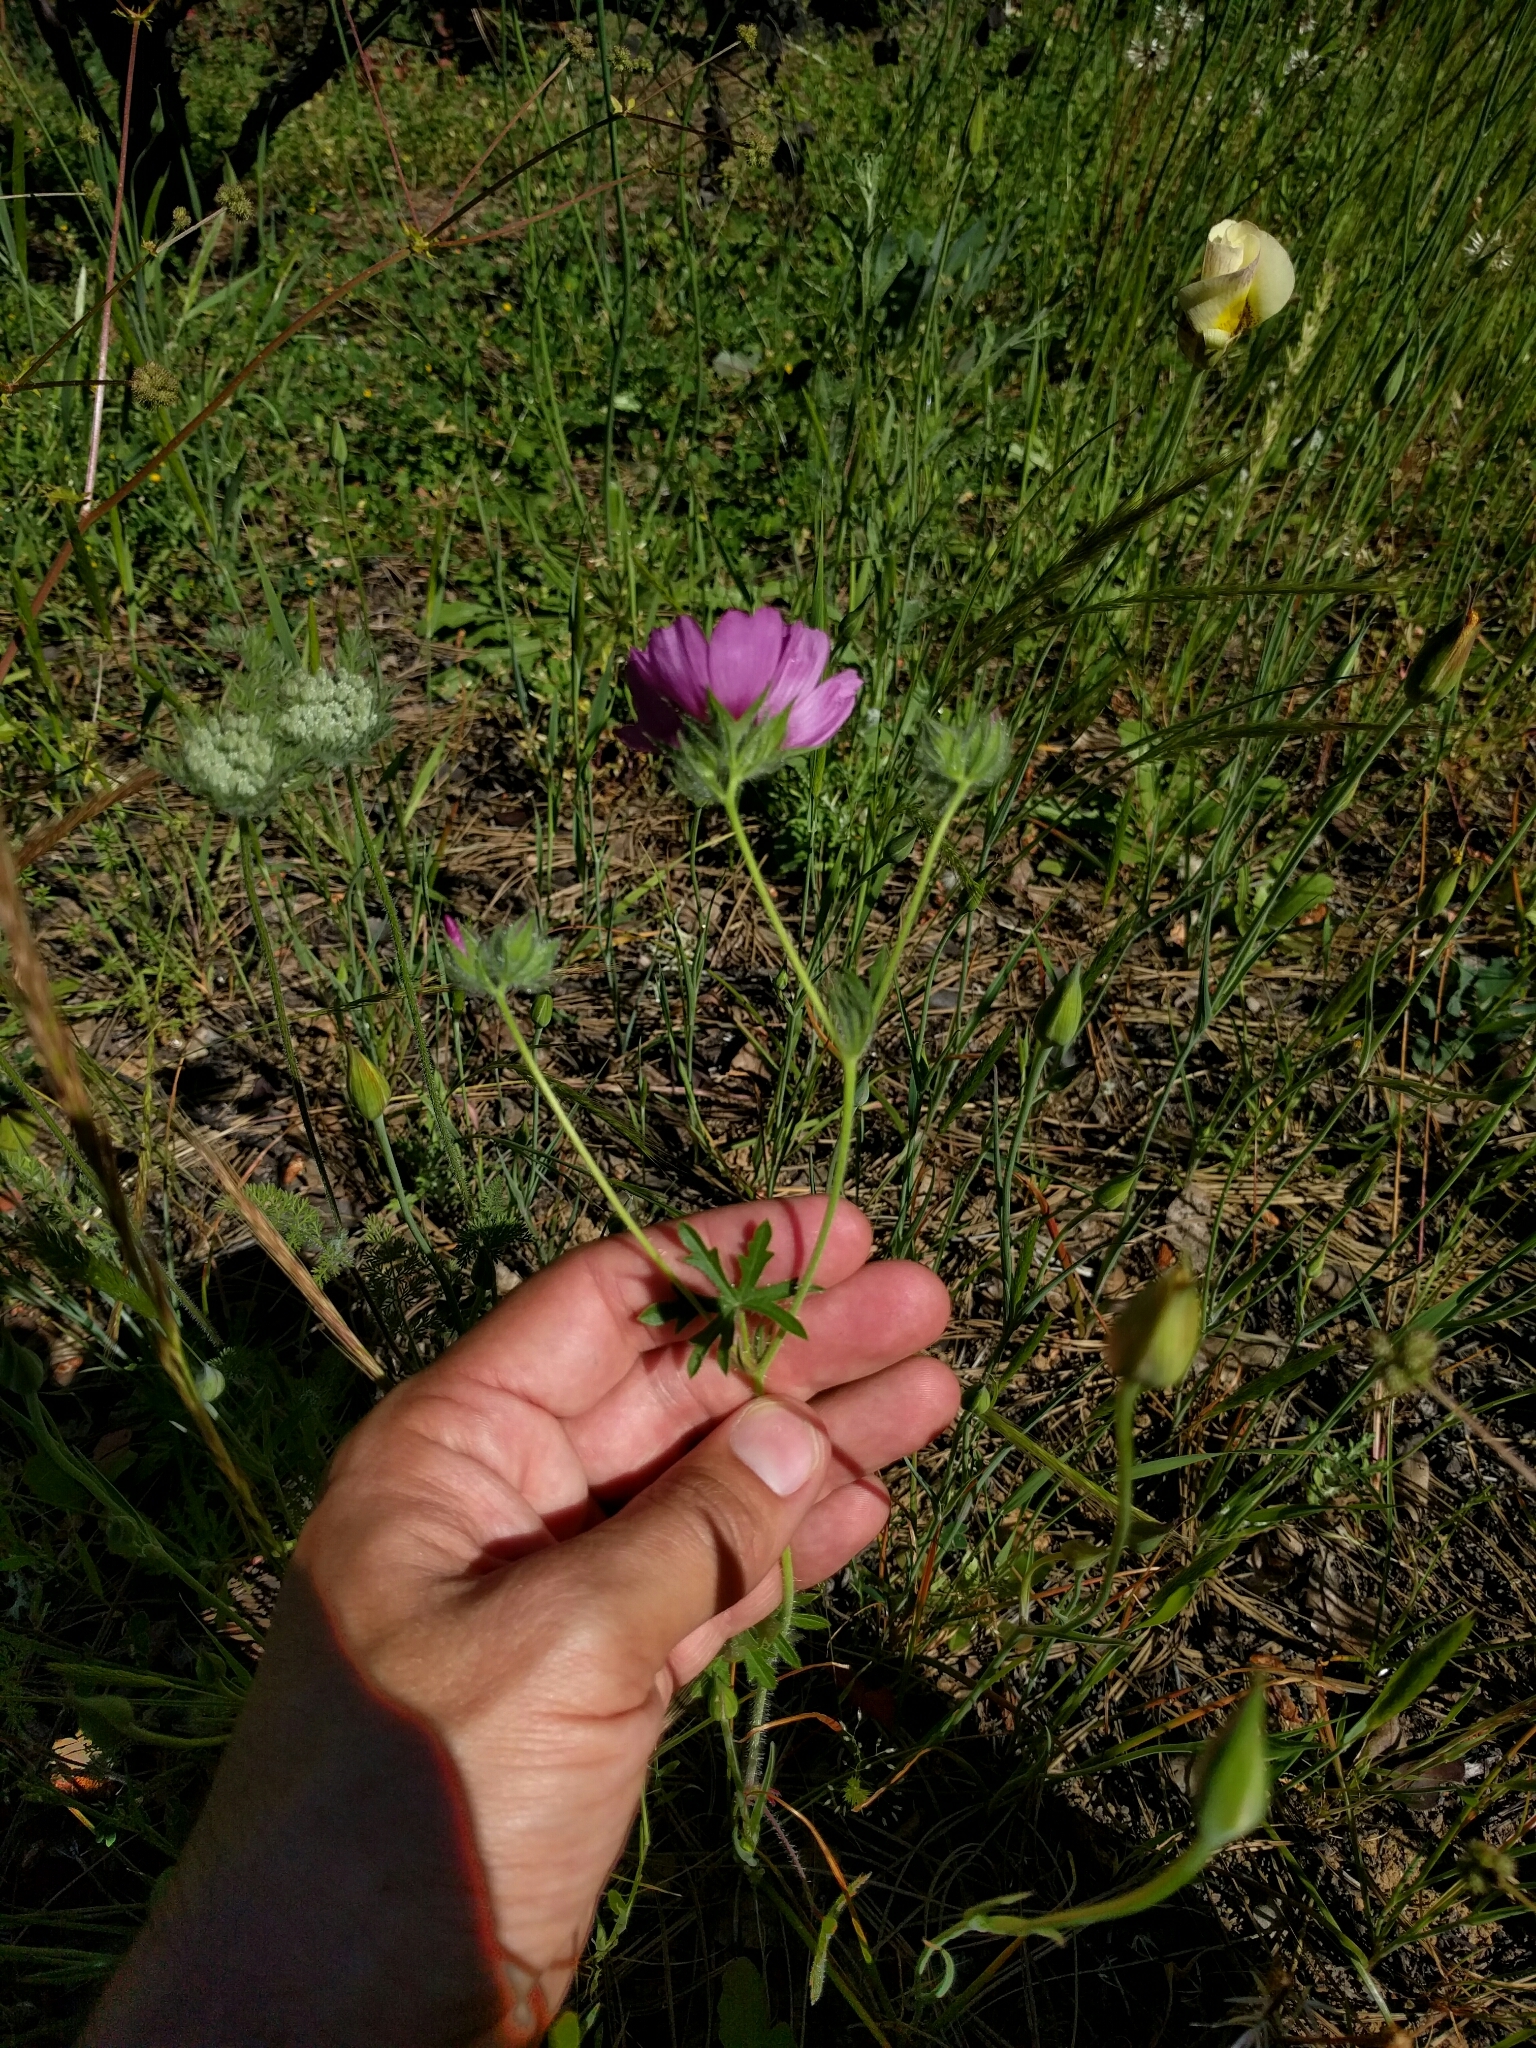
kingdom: Plantae
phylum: Tracheophyta
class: Magnoliopsida
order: Malvales
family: Malvaceae
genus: Sidalcea
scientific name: Sidalcea diploscypha
